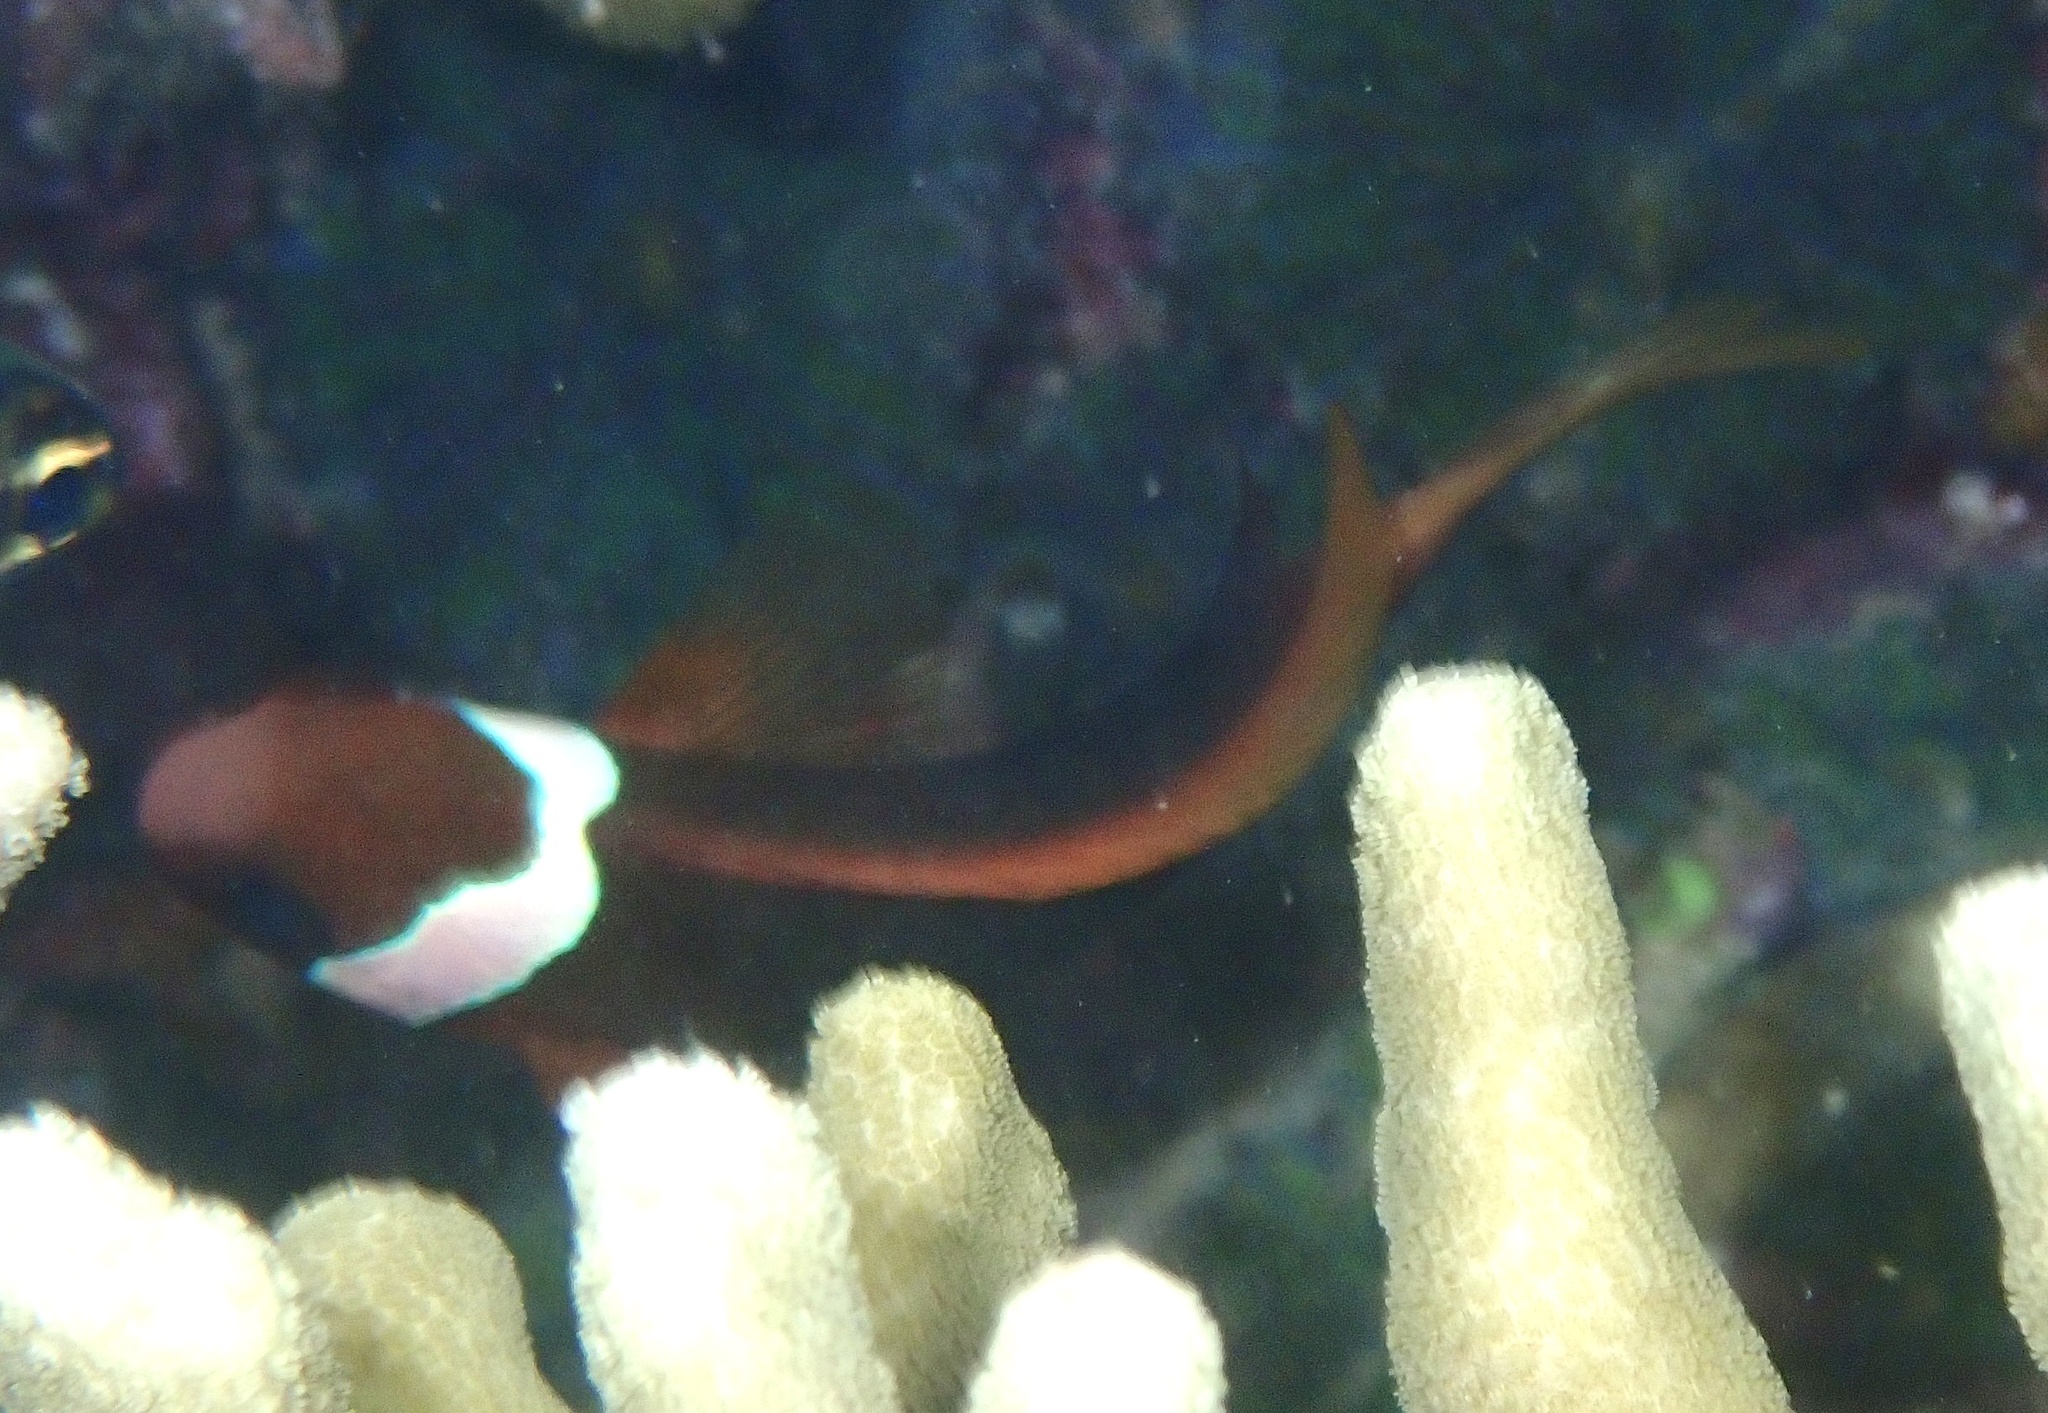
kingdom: Animalia
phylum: Chordata
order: Perciformes
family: Pomacentridae
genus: Amphiprion
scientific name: Amphiprion melanopus
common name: Black anemonefish
